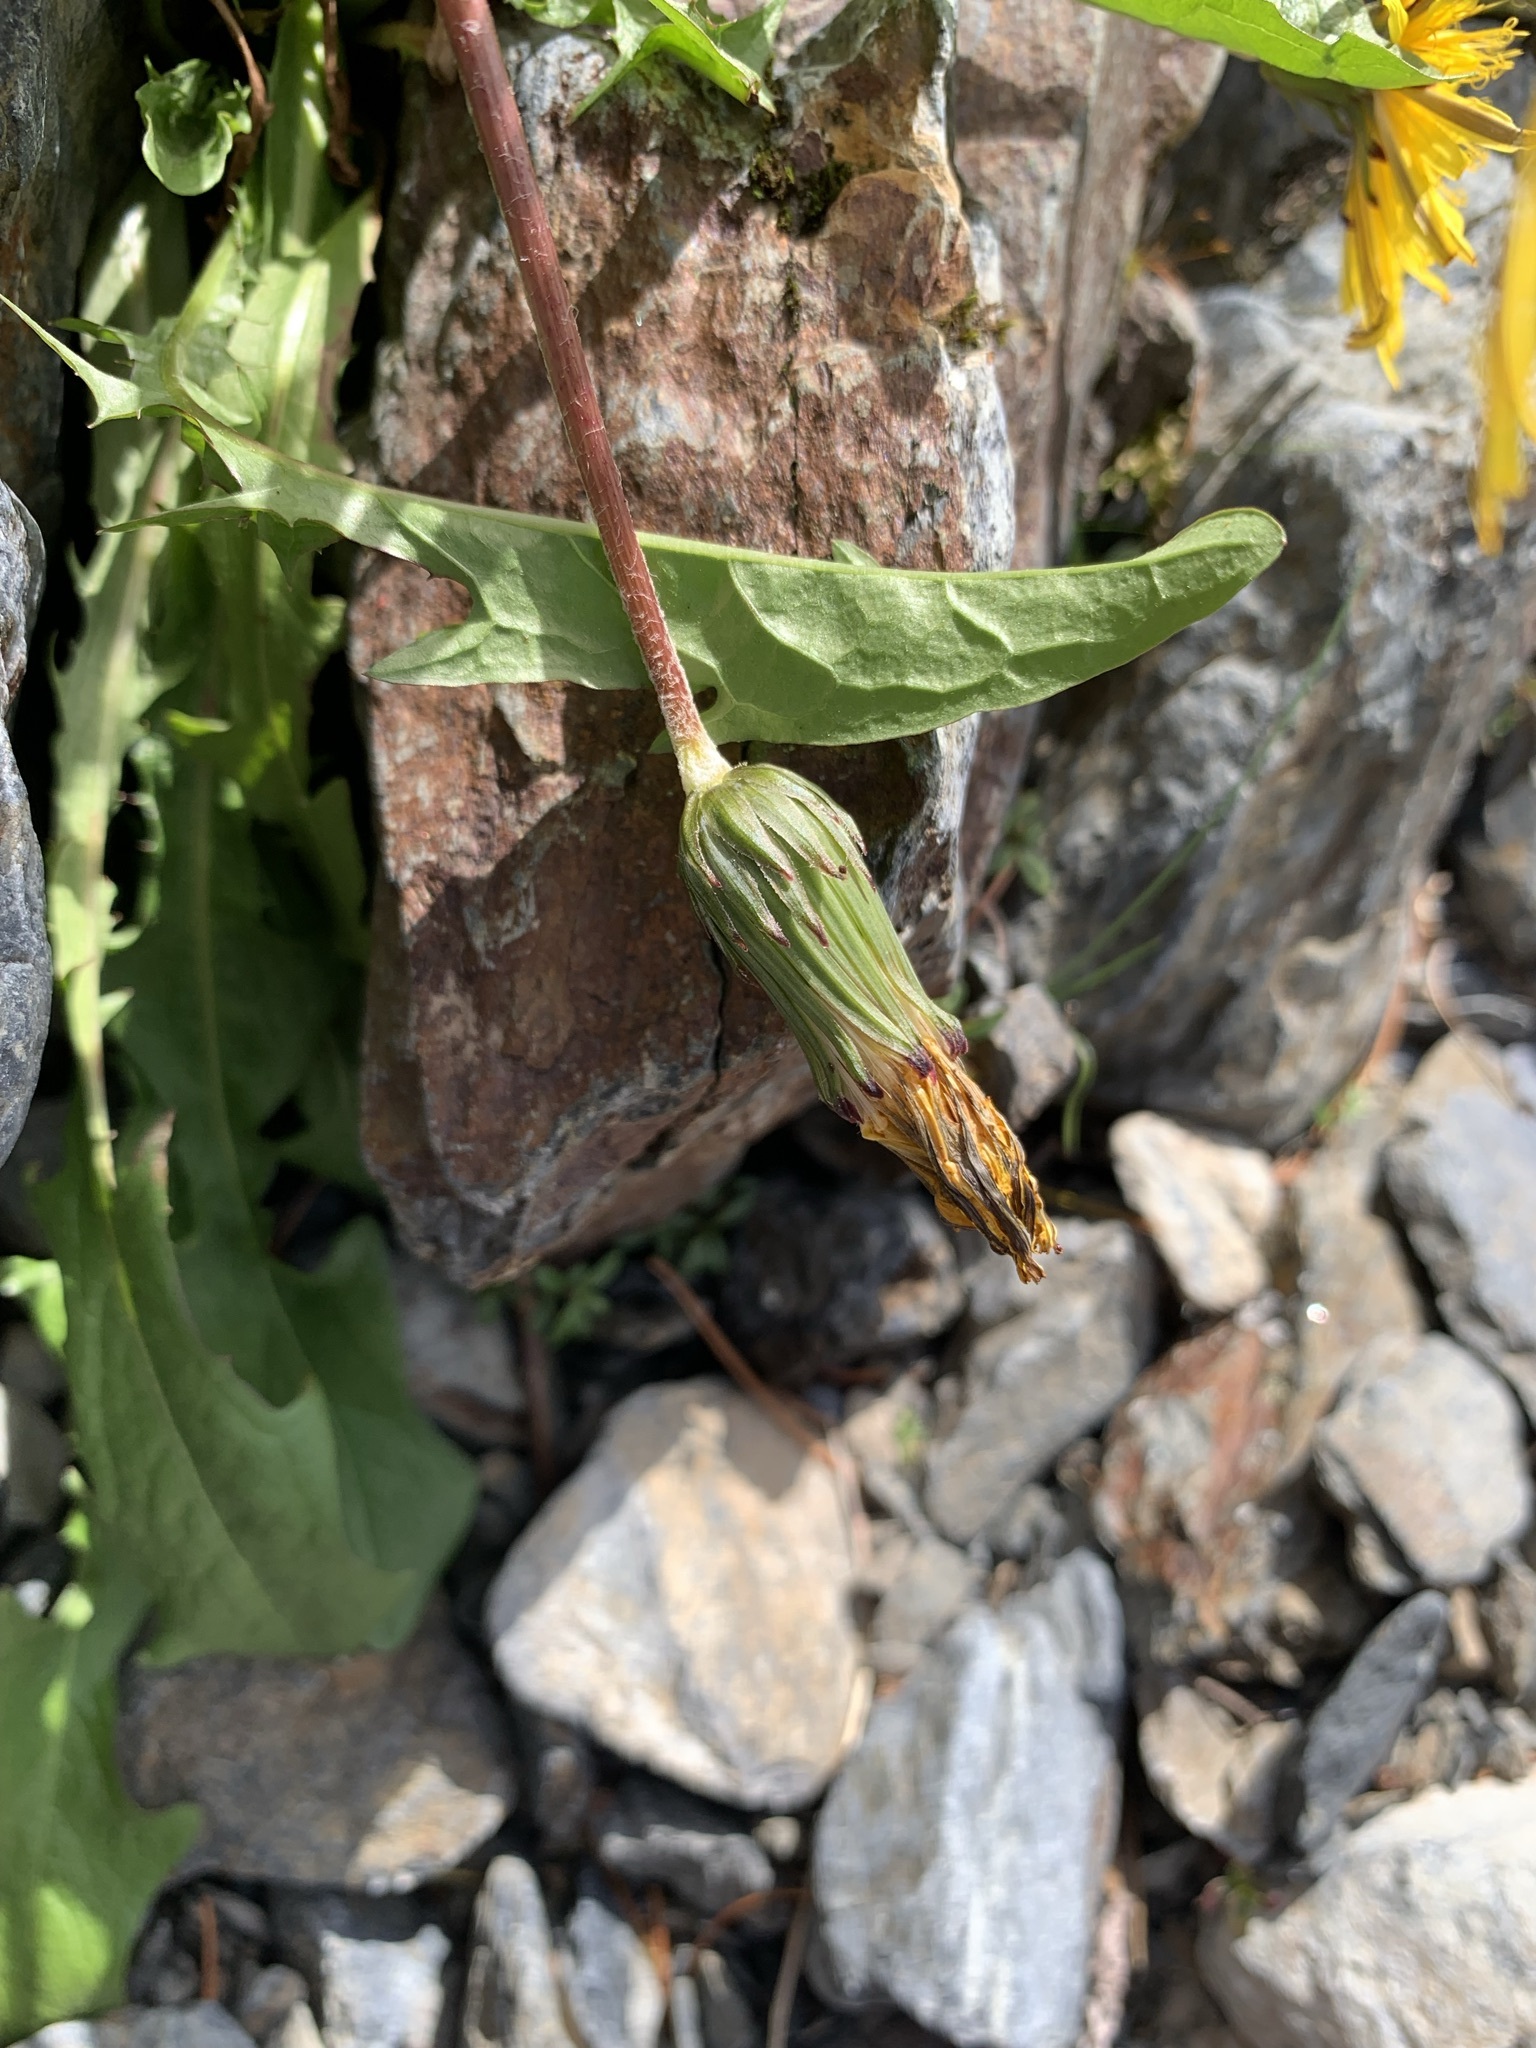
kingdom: Plantae
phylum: Tracheophyta
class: Magnoliopsida
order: Asterales
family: Asteraceae
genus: Taraxacum
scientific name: Taraxacum shinanense
